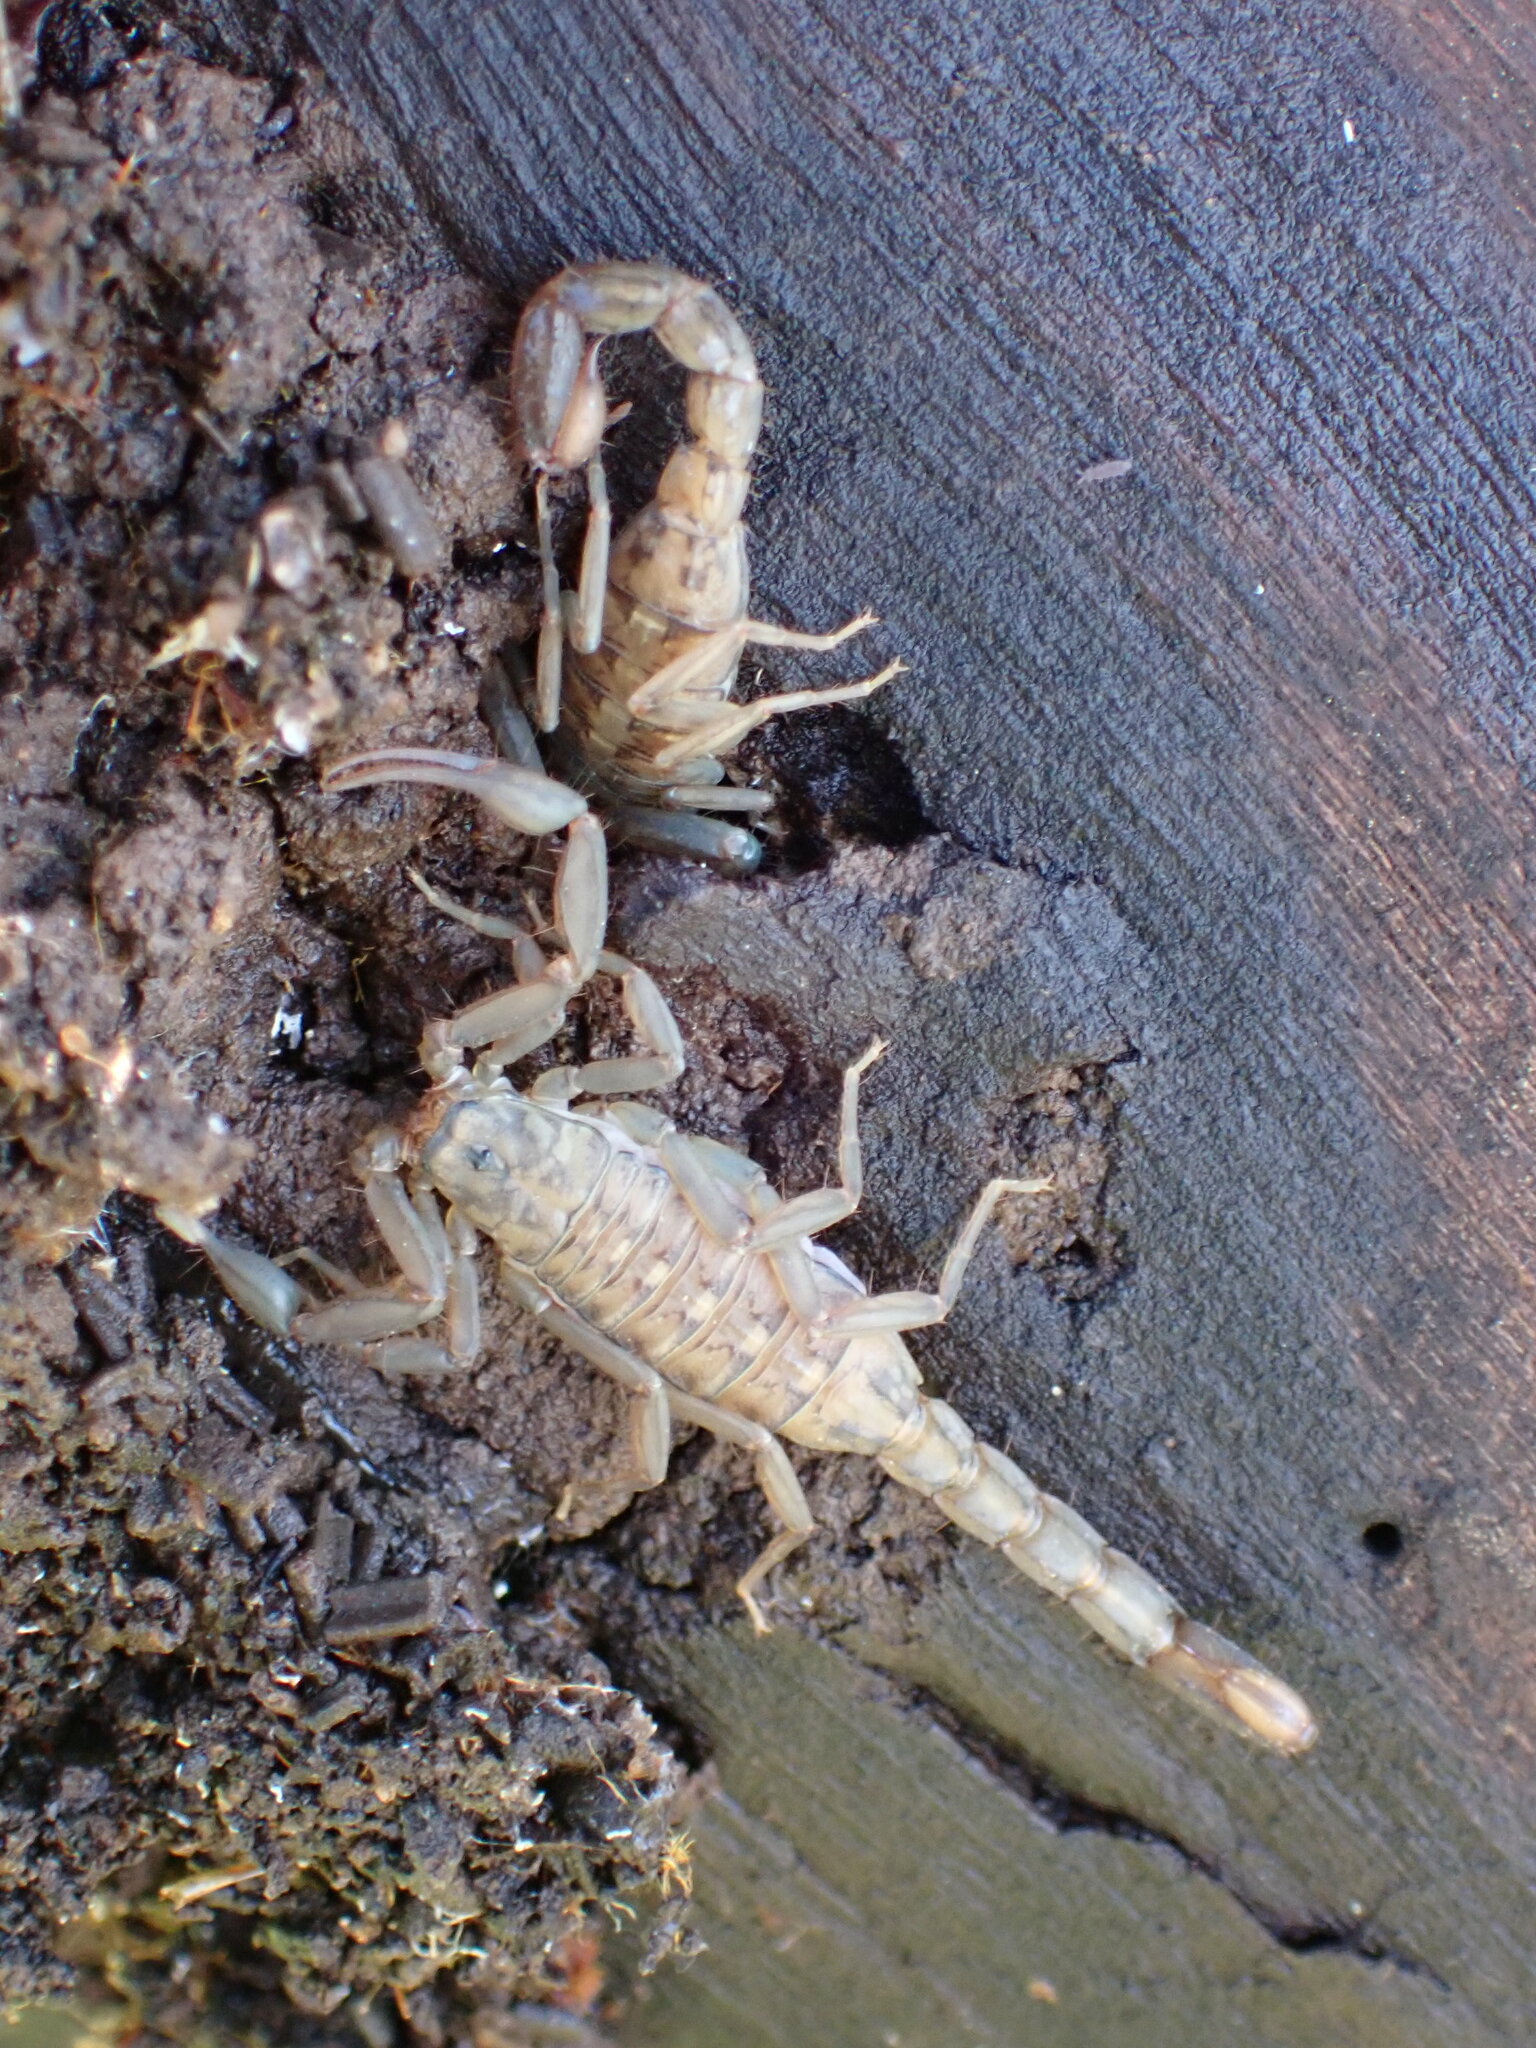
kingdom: Animalia
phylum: Arthropoda
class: Arachnida
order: Scorpiones
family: Vaejovidae
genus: Serradigitus
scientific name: Serradigitus gertschi
